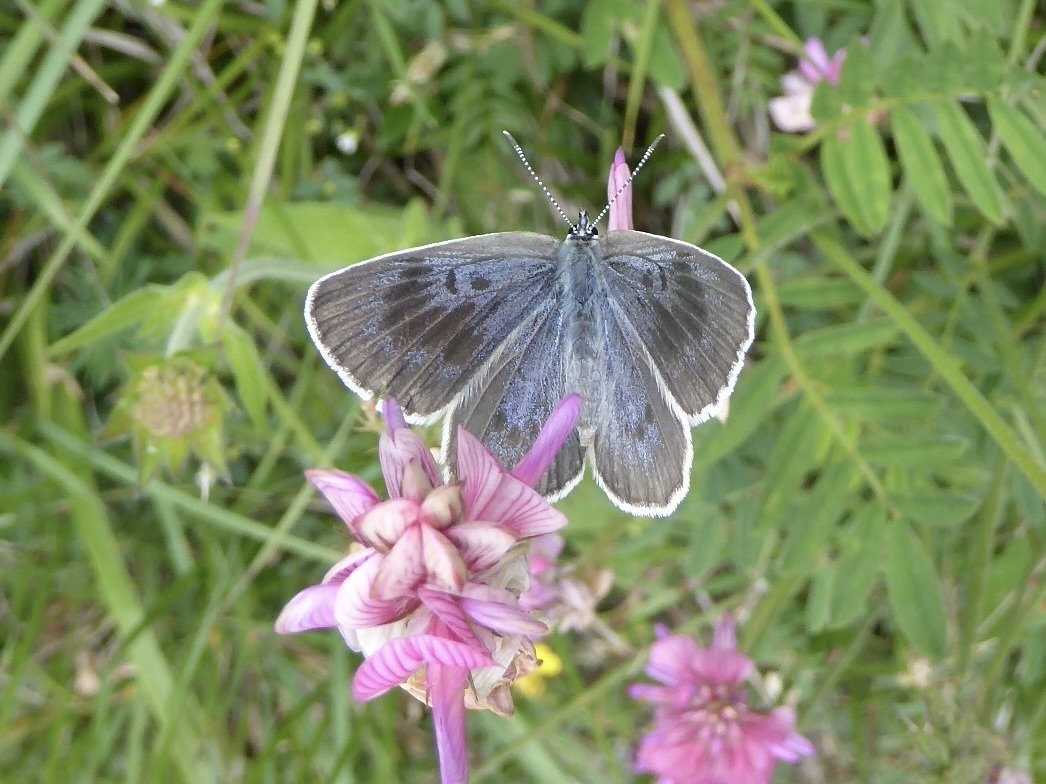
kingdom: Animalia
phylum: Arthropoda
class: Insecta
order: Lepidoptera
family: Lycaenidae
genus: Maculinea
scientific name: Maculinea arion
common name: Large blue
